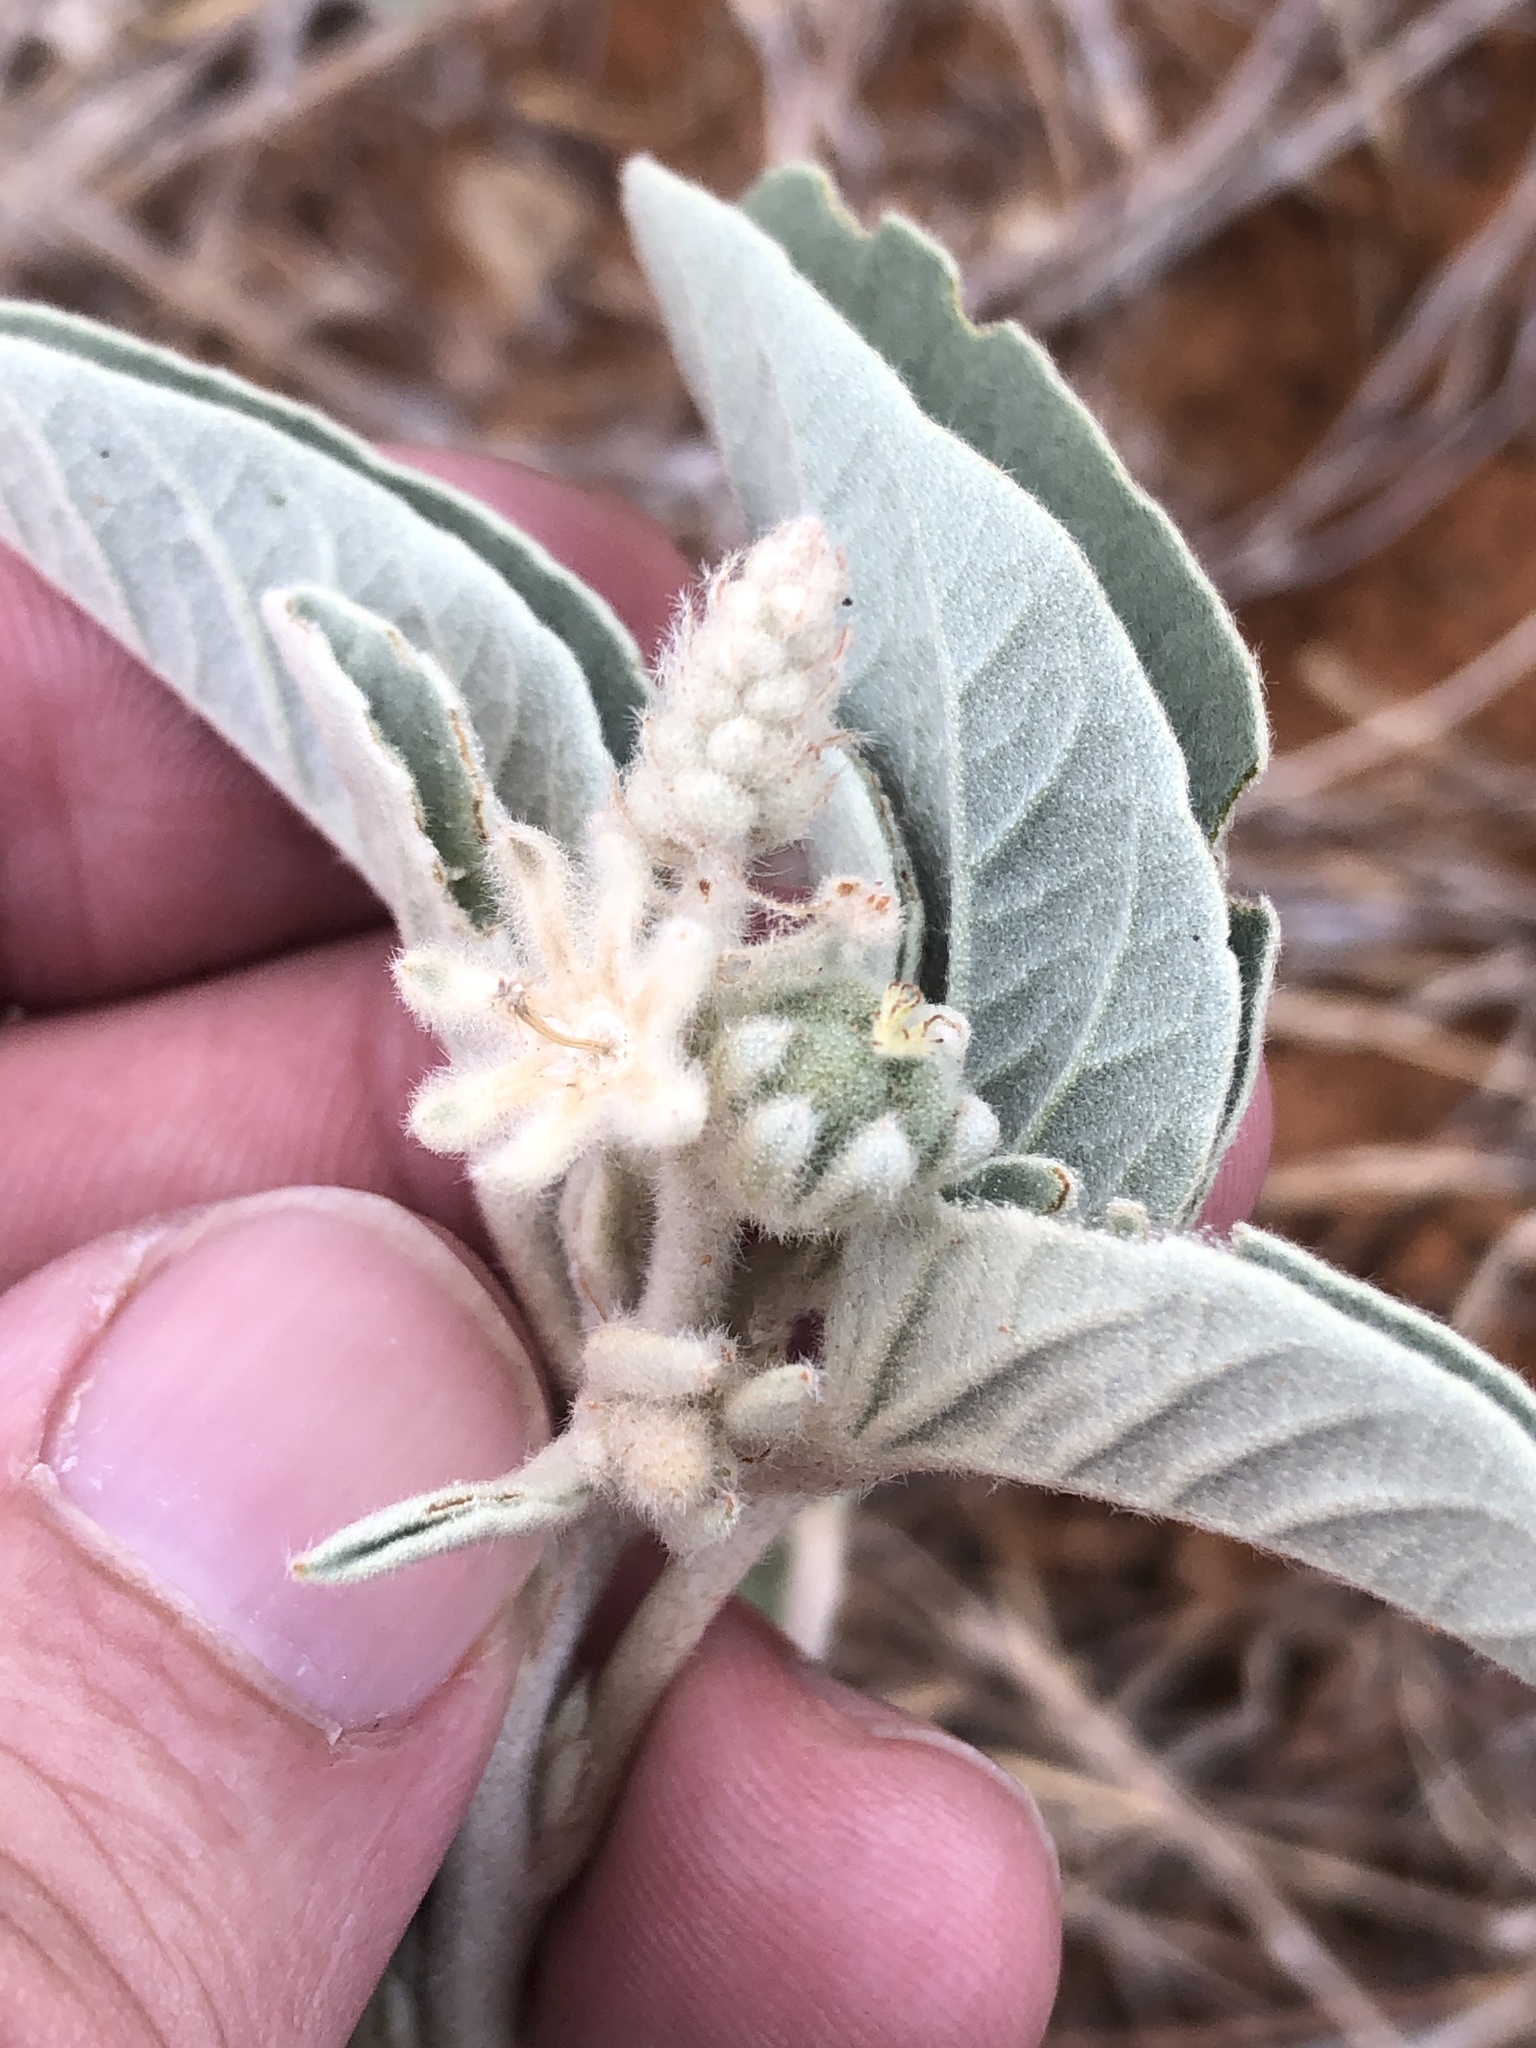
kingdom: Plantae
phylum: Tracheophyta
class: Magnoliopsida
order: Malpighiales
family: Euphorbiaceae
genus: Croton
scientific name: Croton lindheimeri
